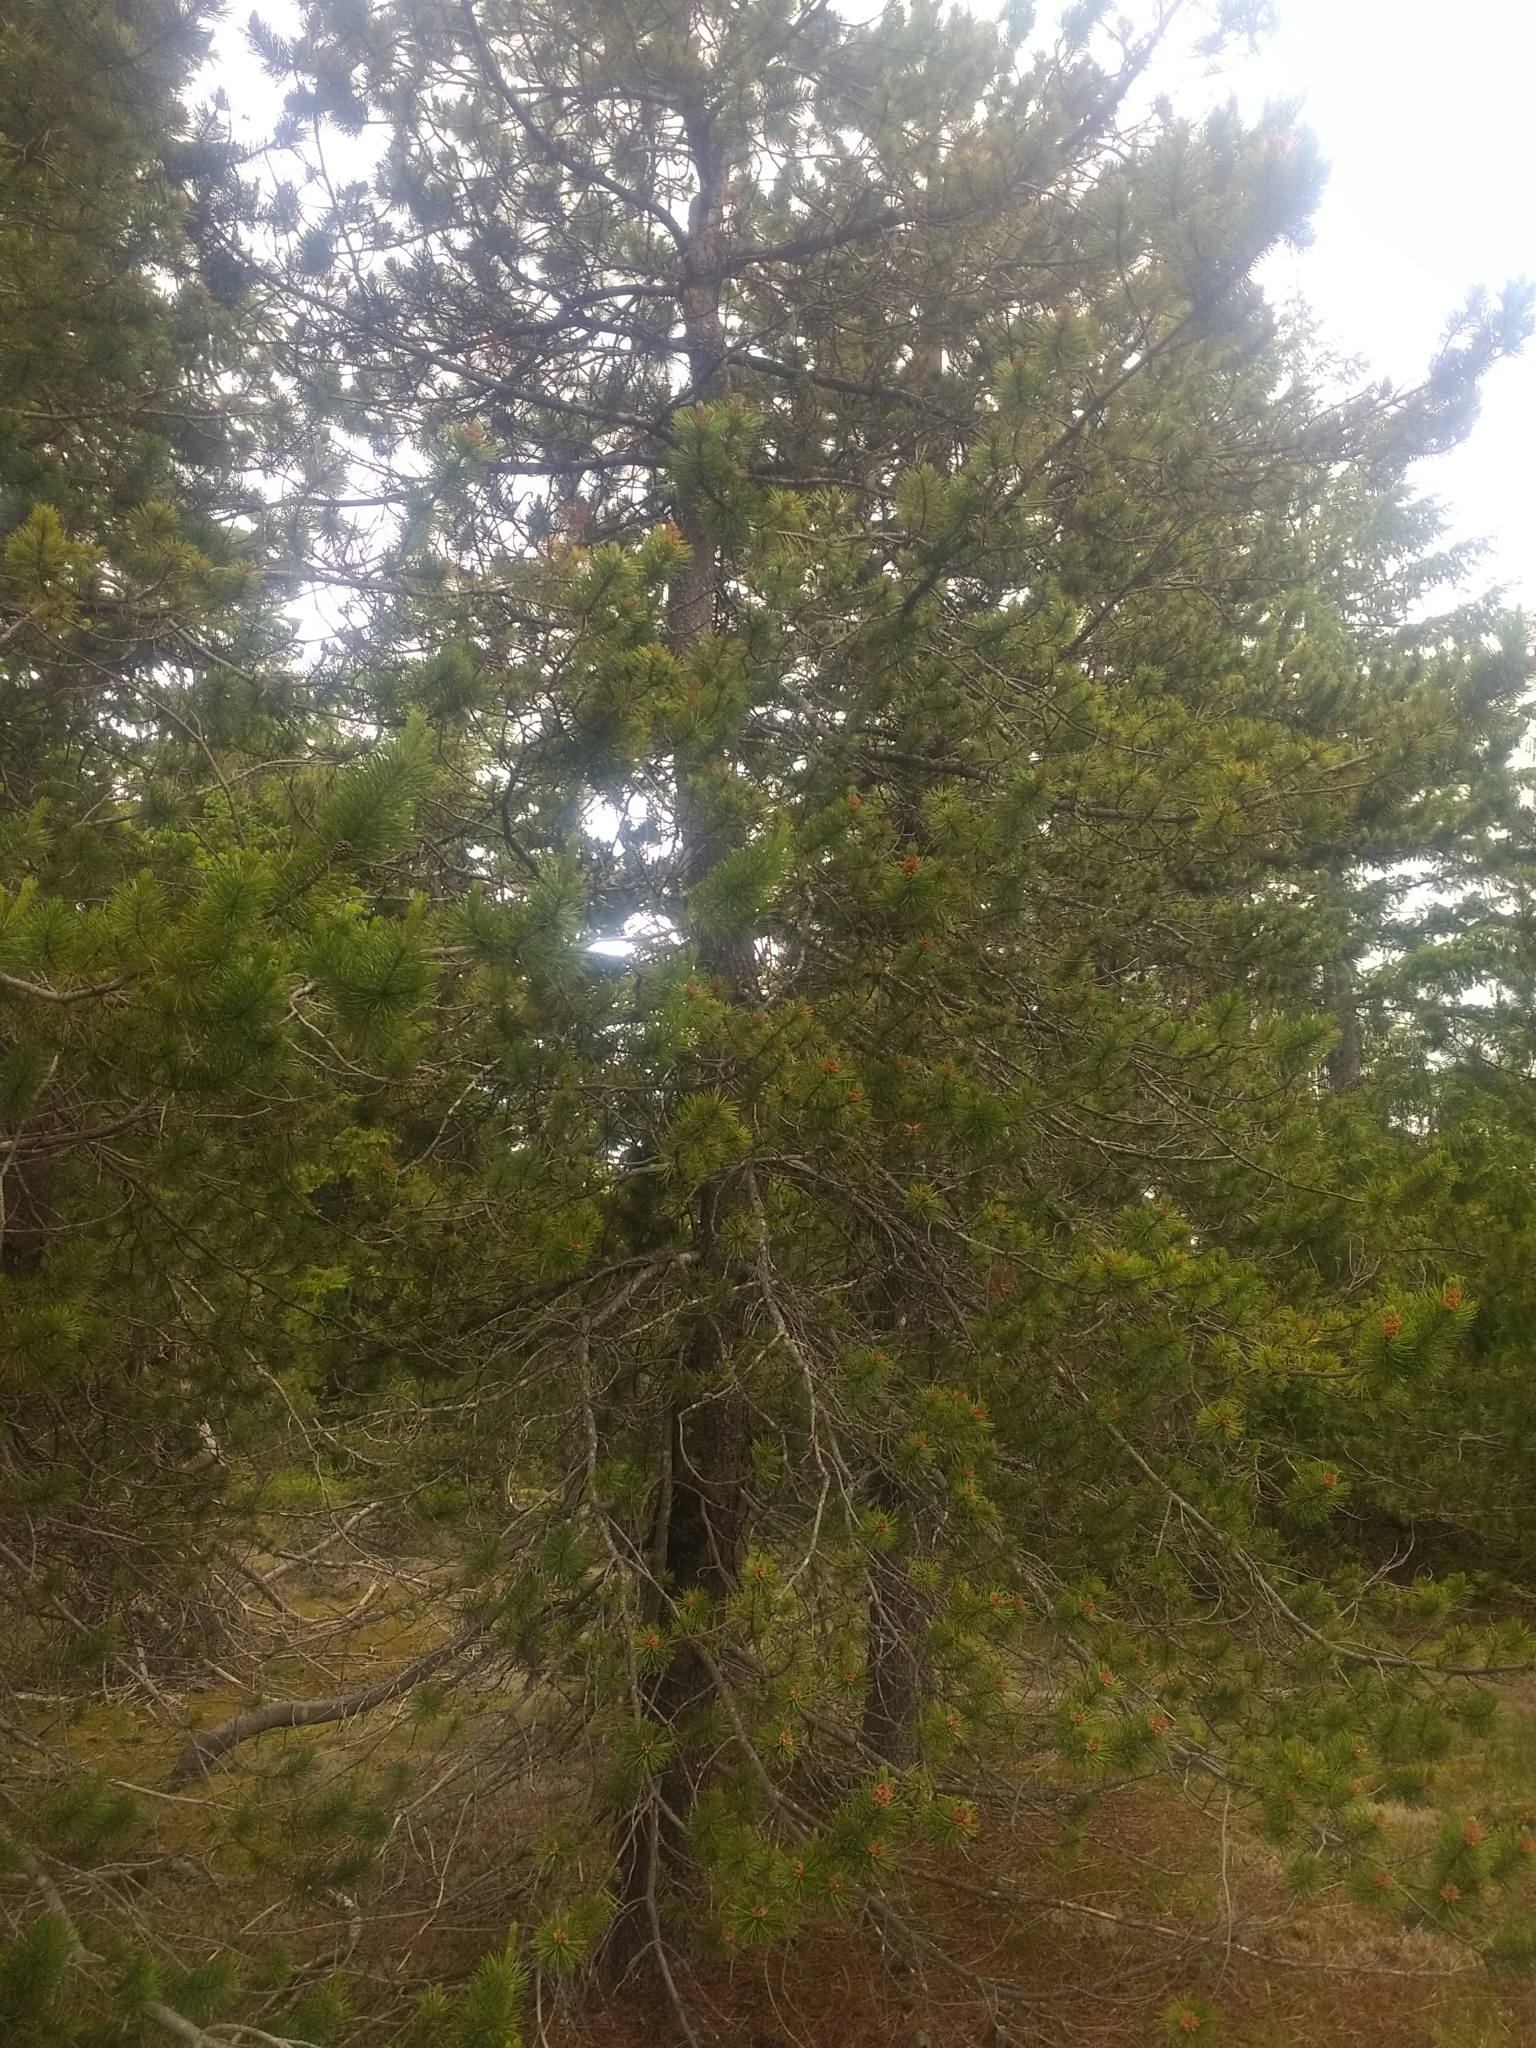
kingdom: Plantae
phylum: Tracheophyta
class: Pinopsida
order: Pinales
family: Pinaceae
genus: Pinus
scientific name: Pinus contorta
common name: Lodgepole pine
